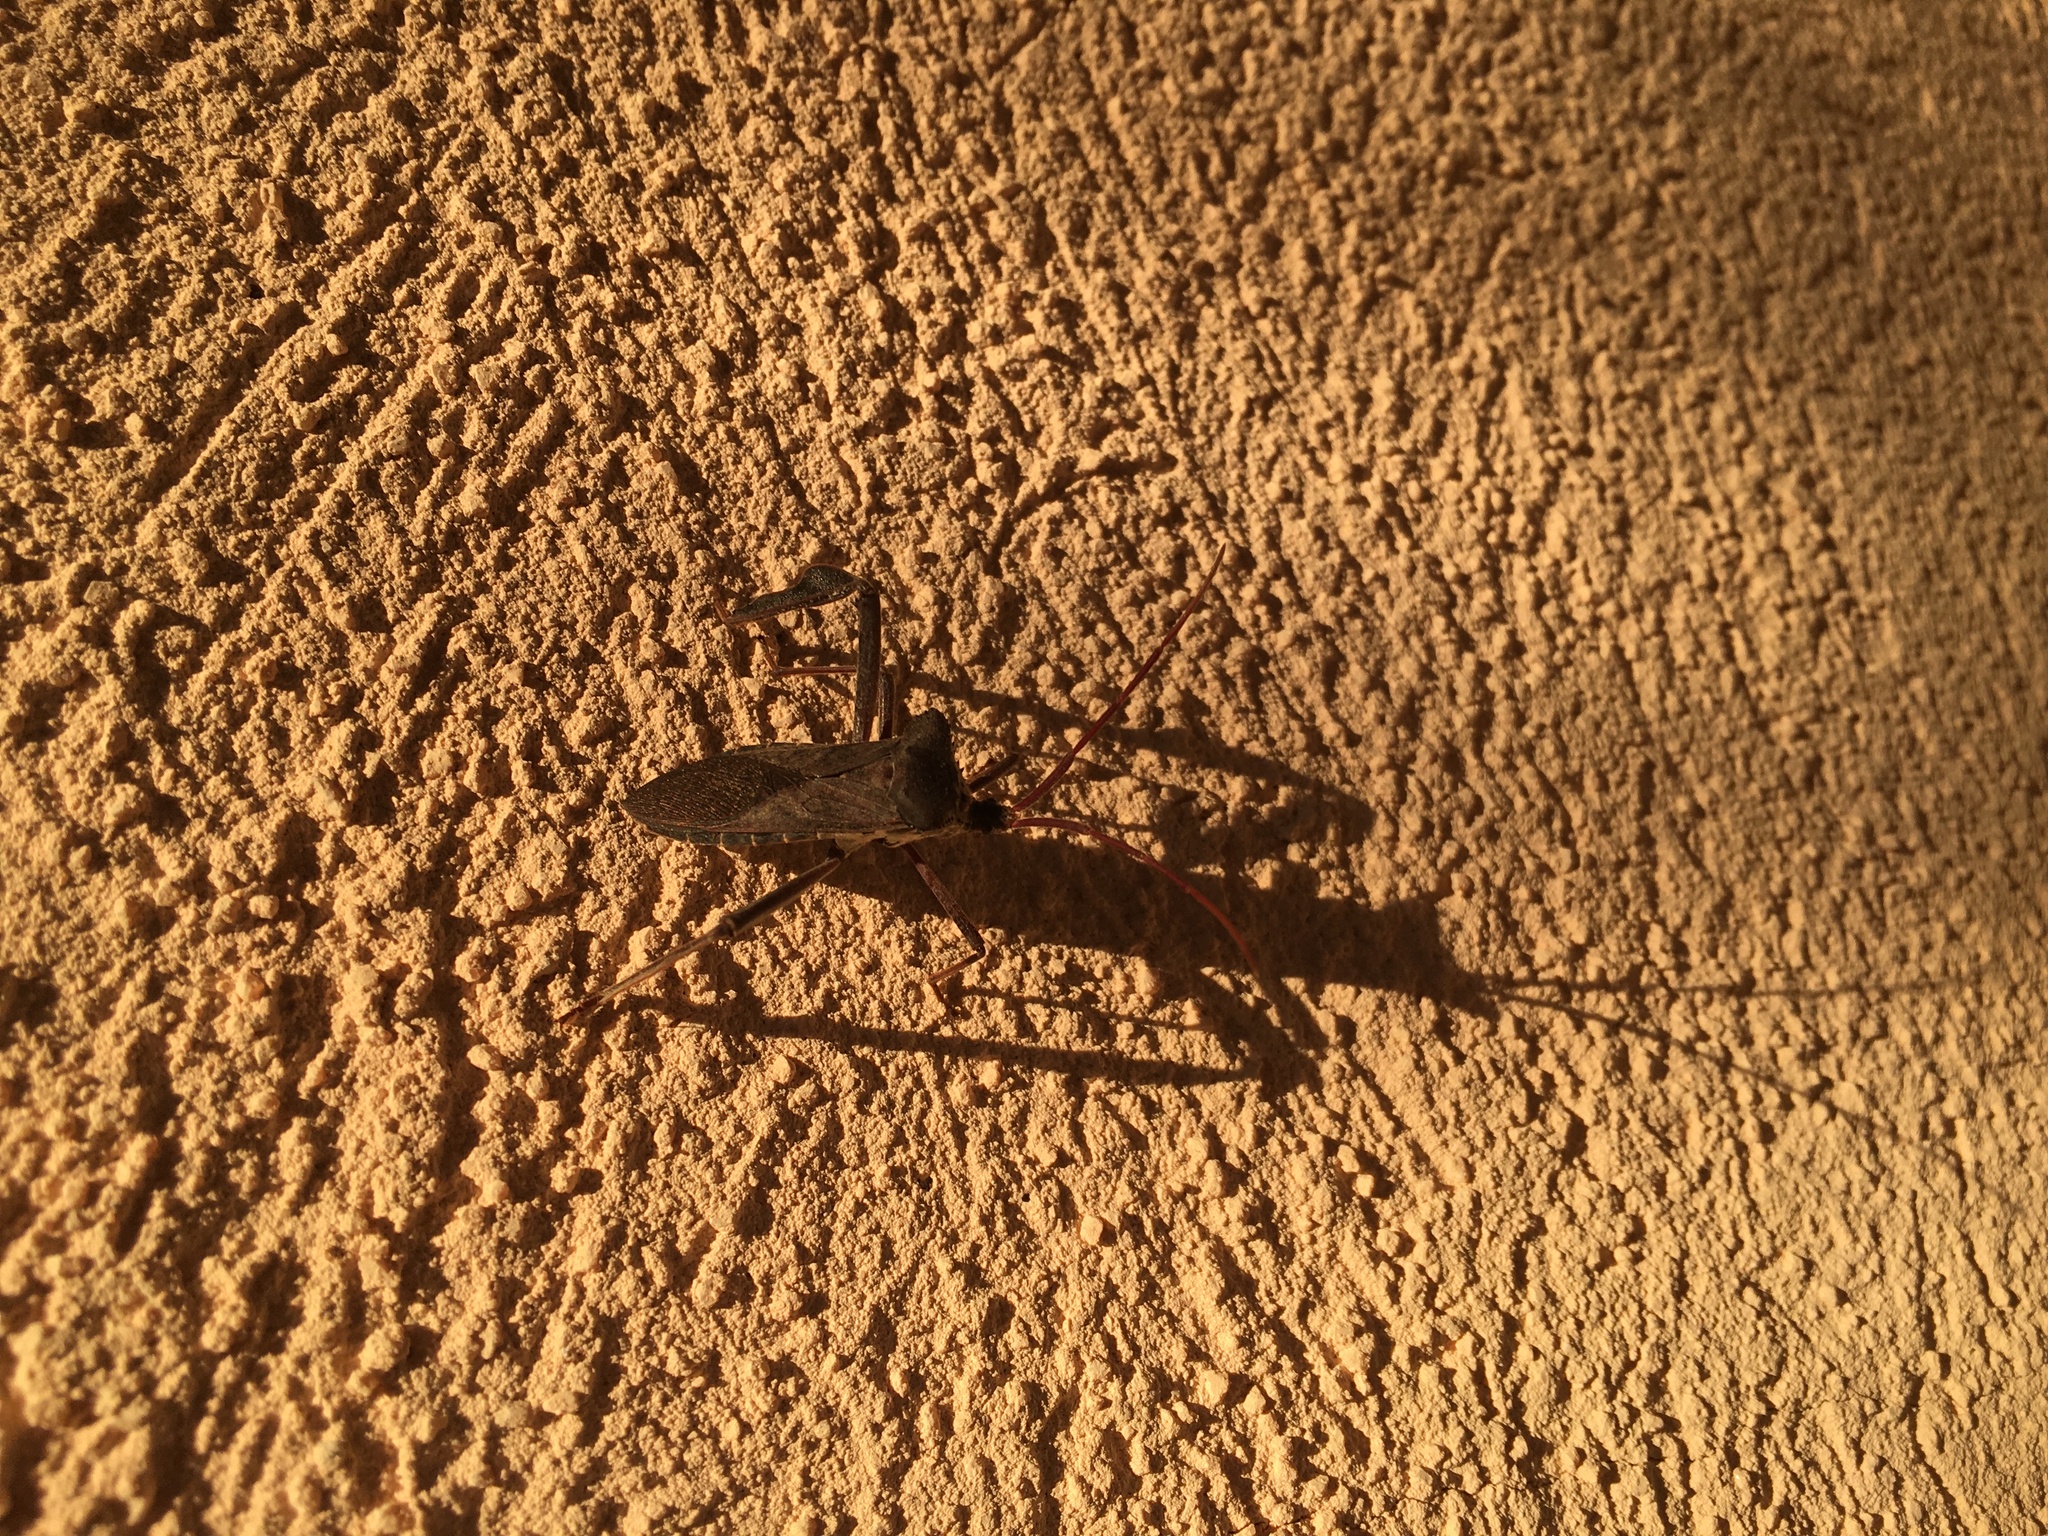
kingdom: Animalia
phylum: Arthropoda
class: Insecta
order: Hemiptera
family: Coreidae
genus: Acanthocephala
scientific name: Acanthocephala declivis
